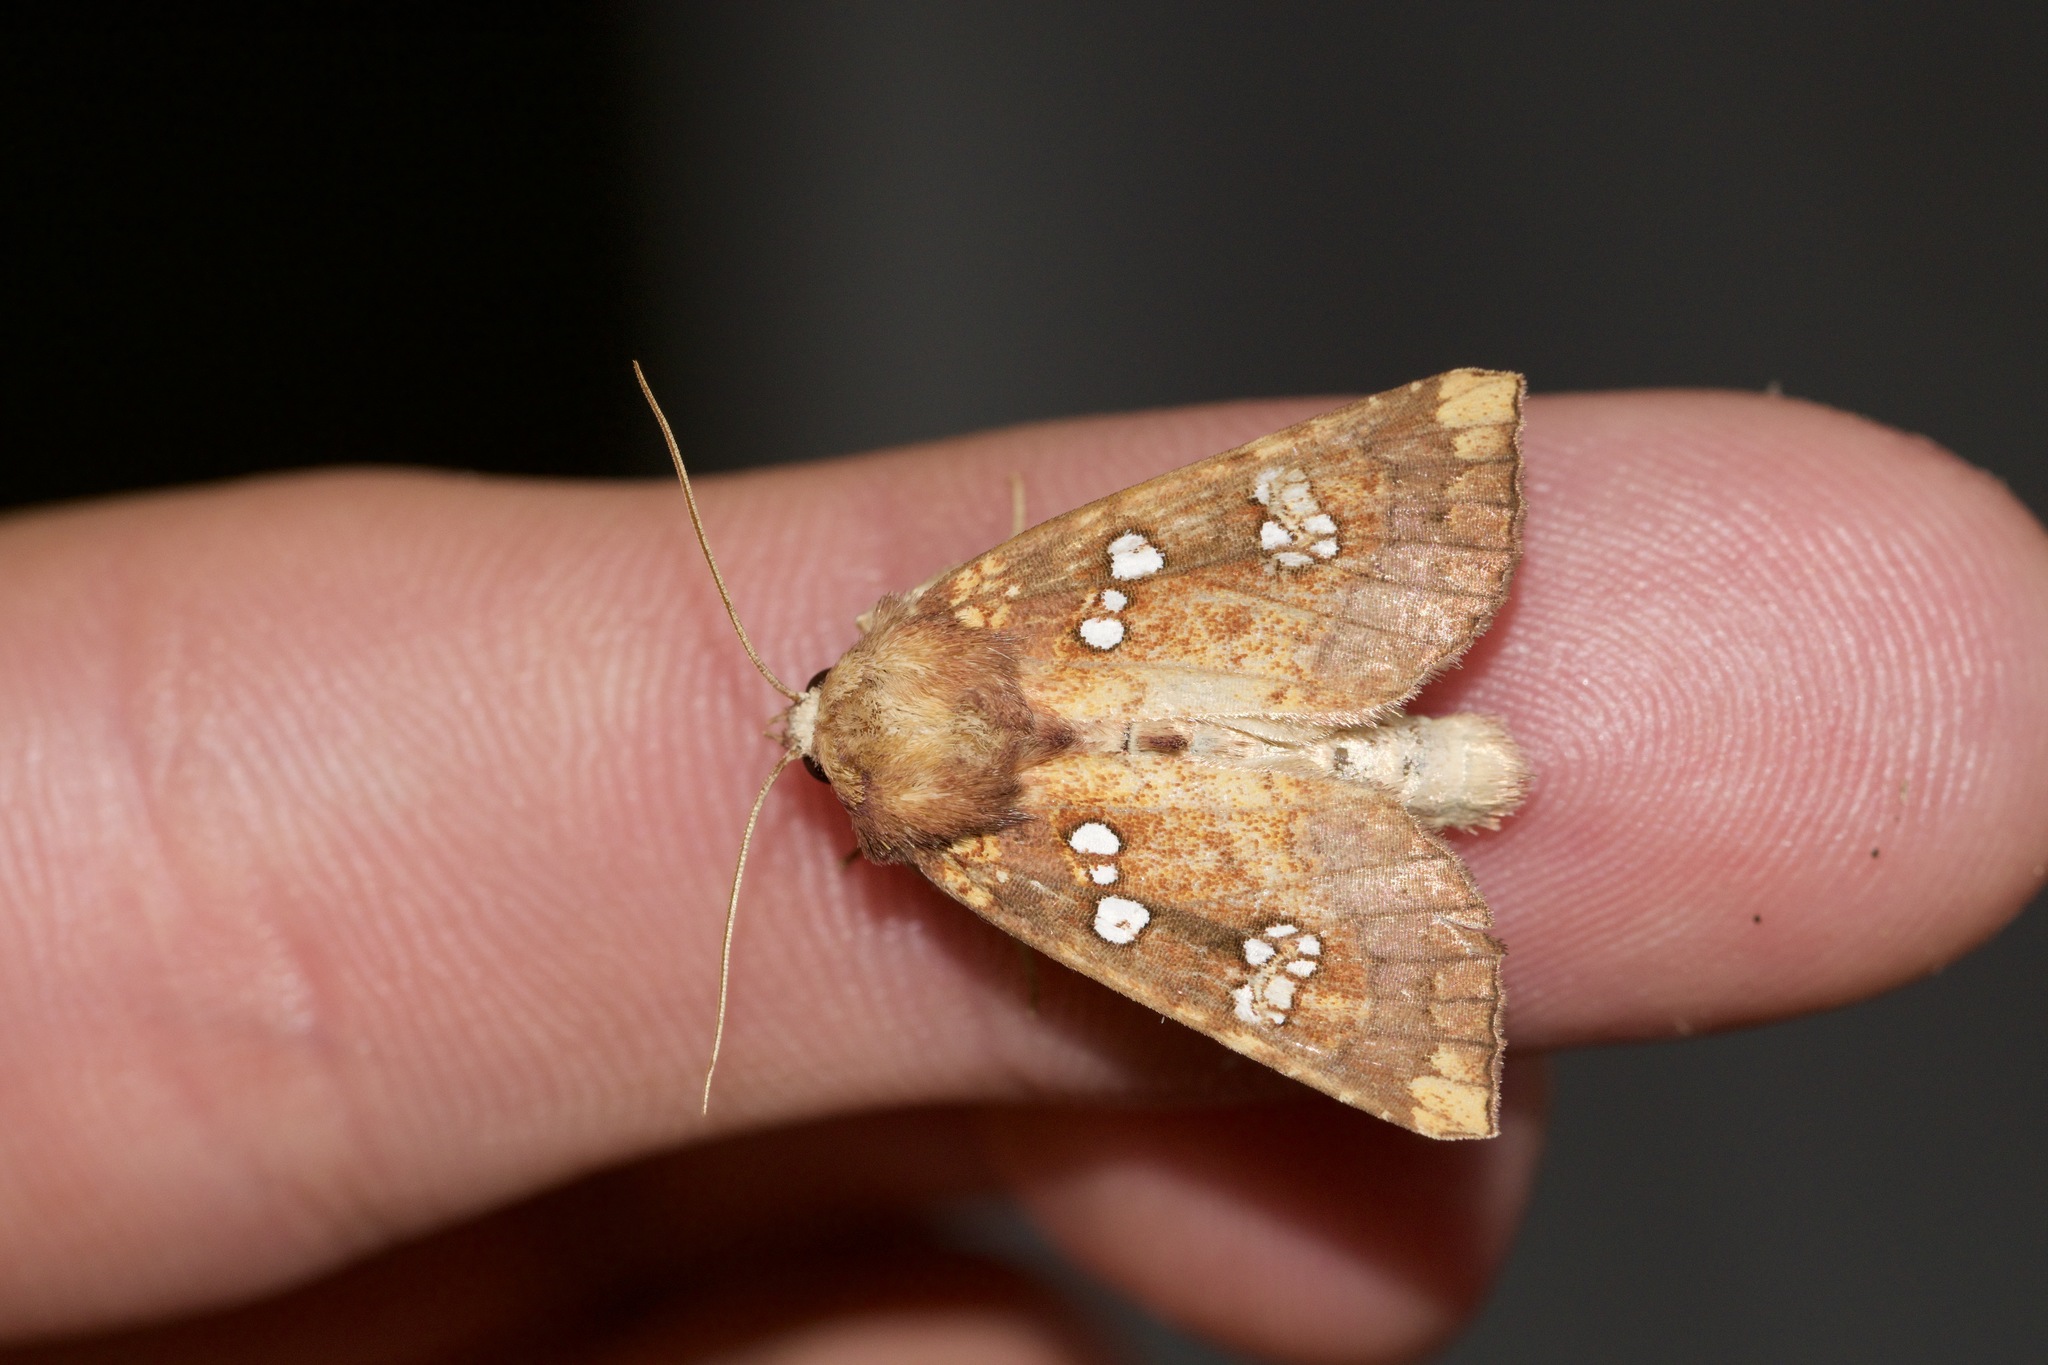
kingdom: Animalia
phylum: Arthropoda
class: Insecta
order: Lepidoptera
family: Noctuidae
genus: Papaipema
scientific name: Papaipema baptisiae
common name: Wild indigo borer moth
